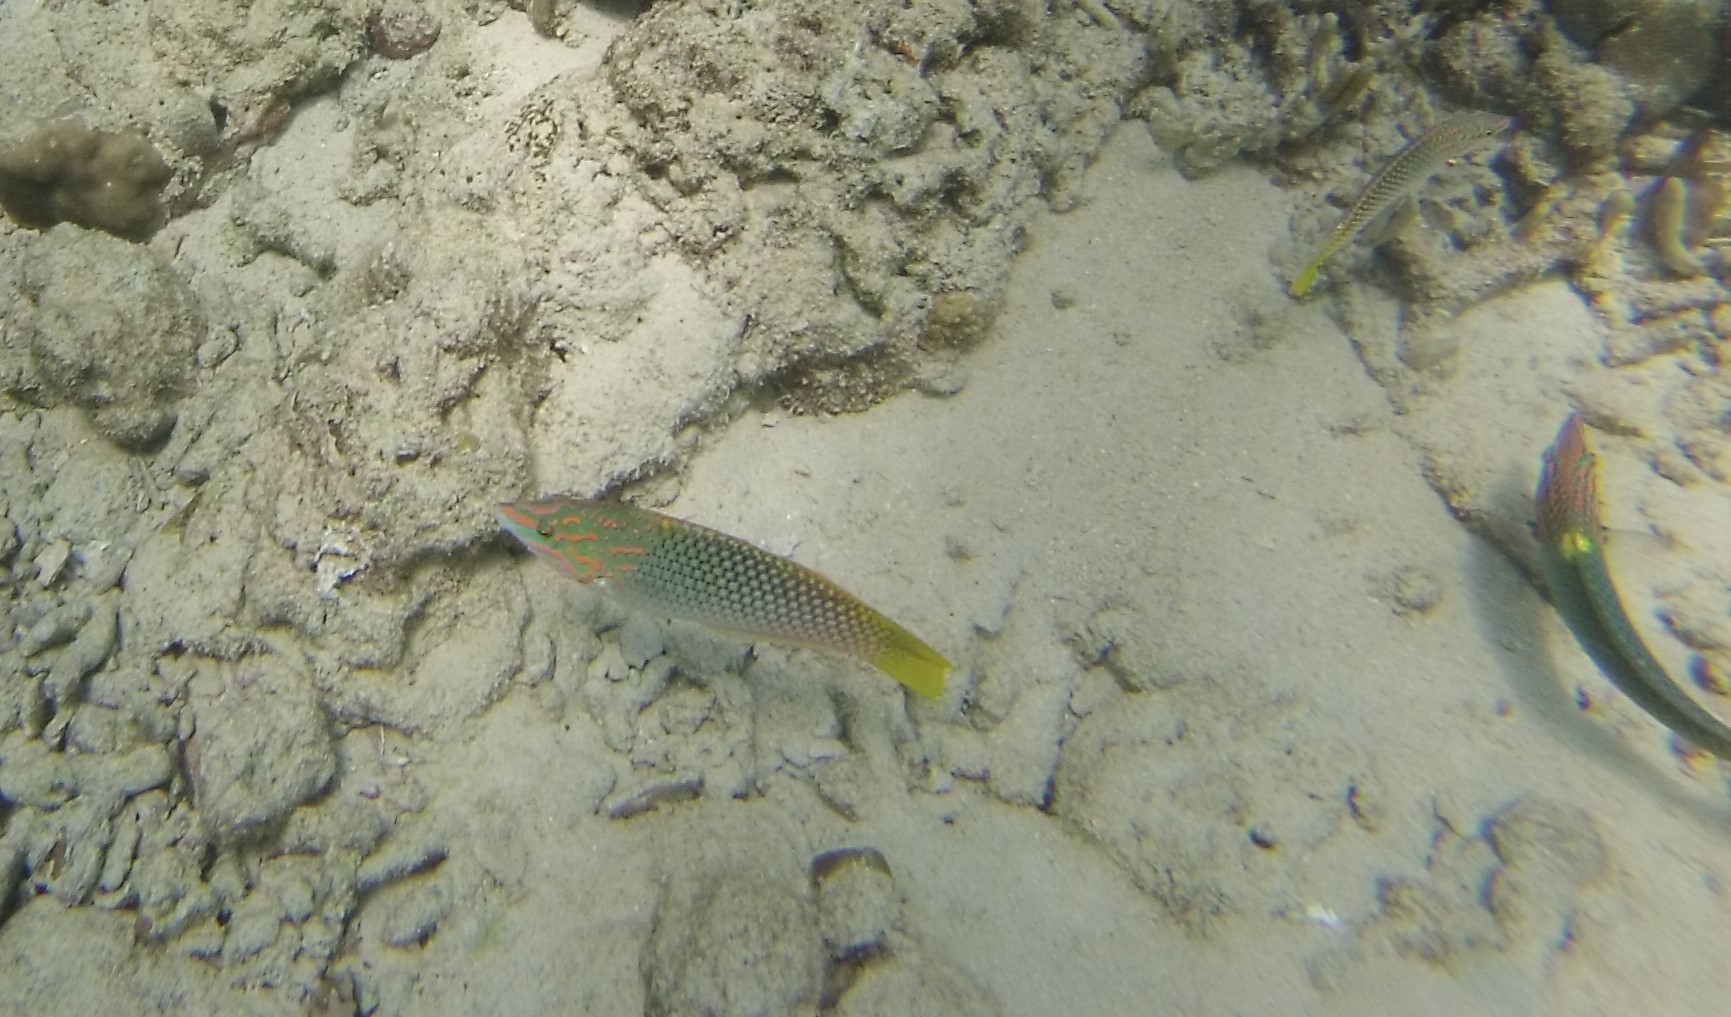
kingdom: Animalia
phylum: Chordata
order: Perciformes
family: Labridae
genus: Halichoeres
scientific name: Halichoeres hortulanus
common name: Checkerboard wrasse
